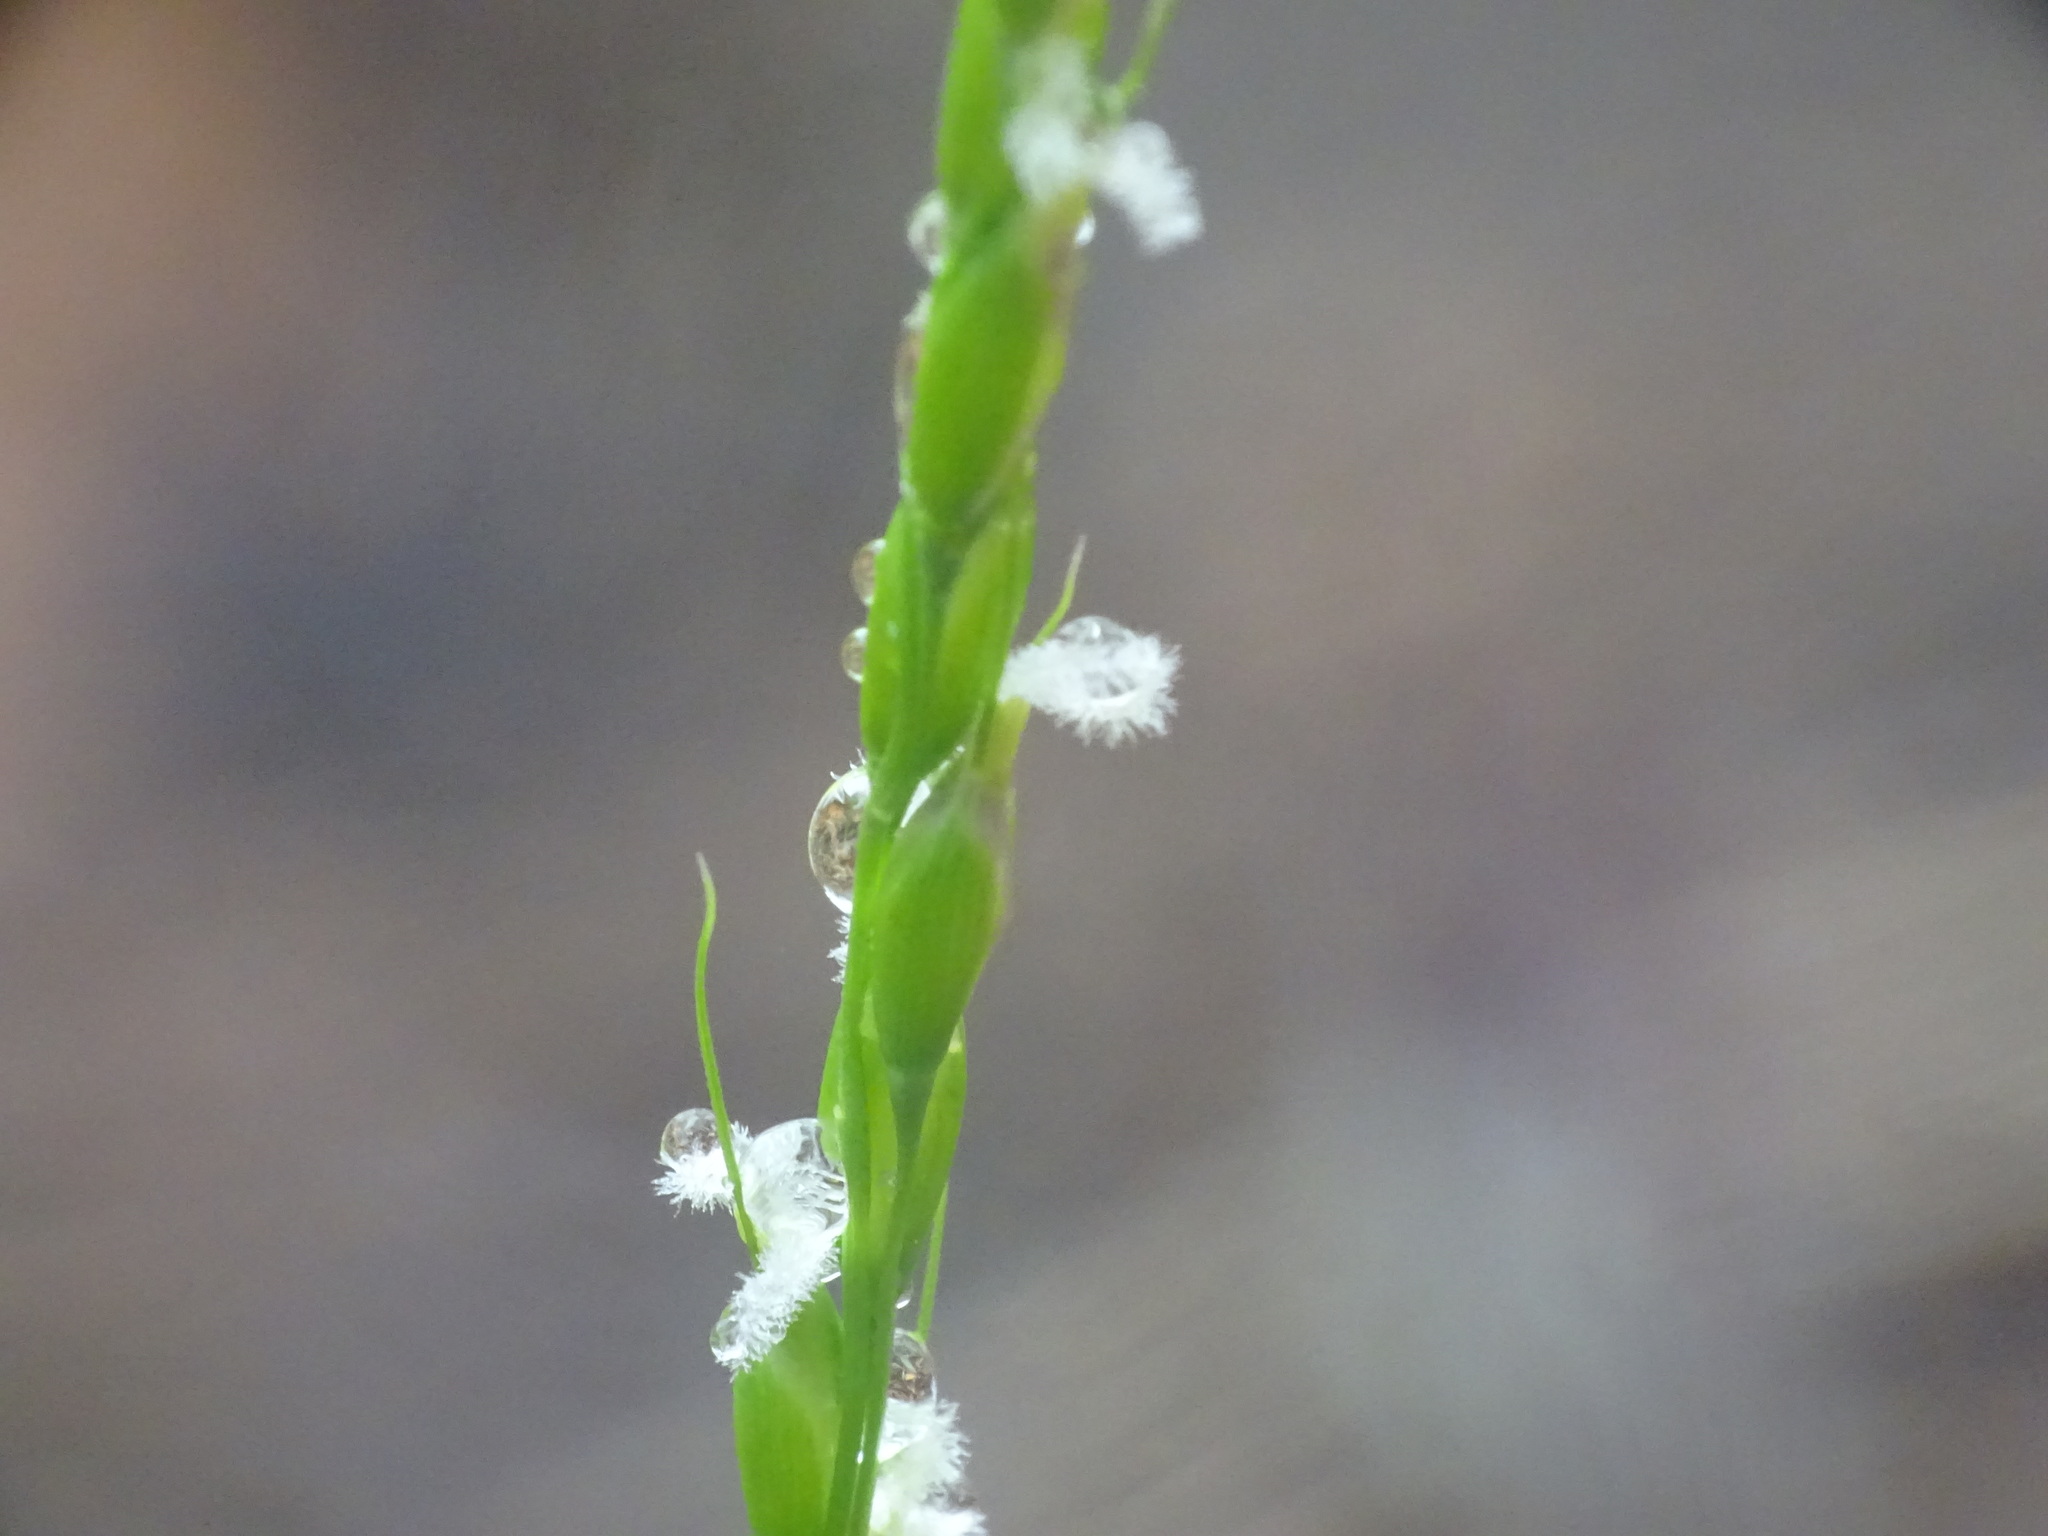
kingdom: Plantae
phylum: Tracheophyta
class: Liliopsida
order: Poales
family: Poaceae
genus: Oryzopsis
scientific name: Oryzopsis asperifolia
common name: Rough-leaved mountain rice
